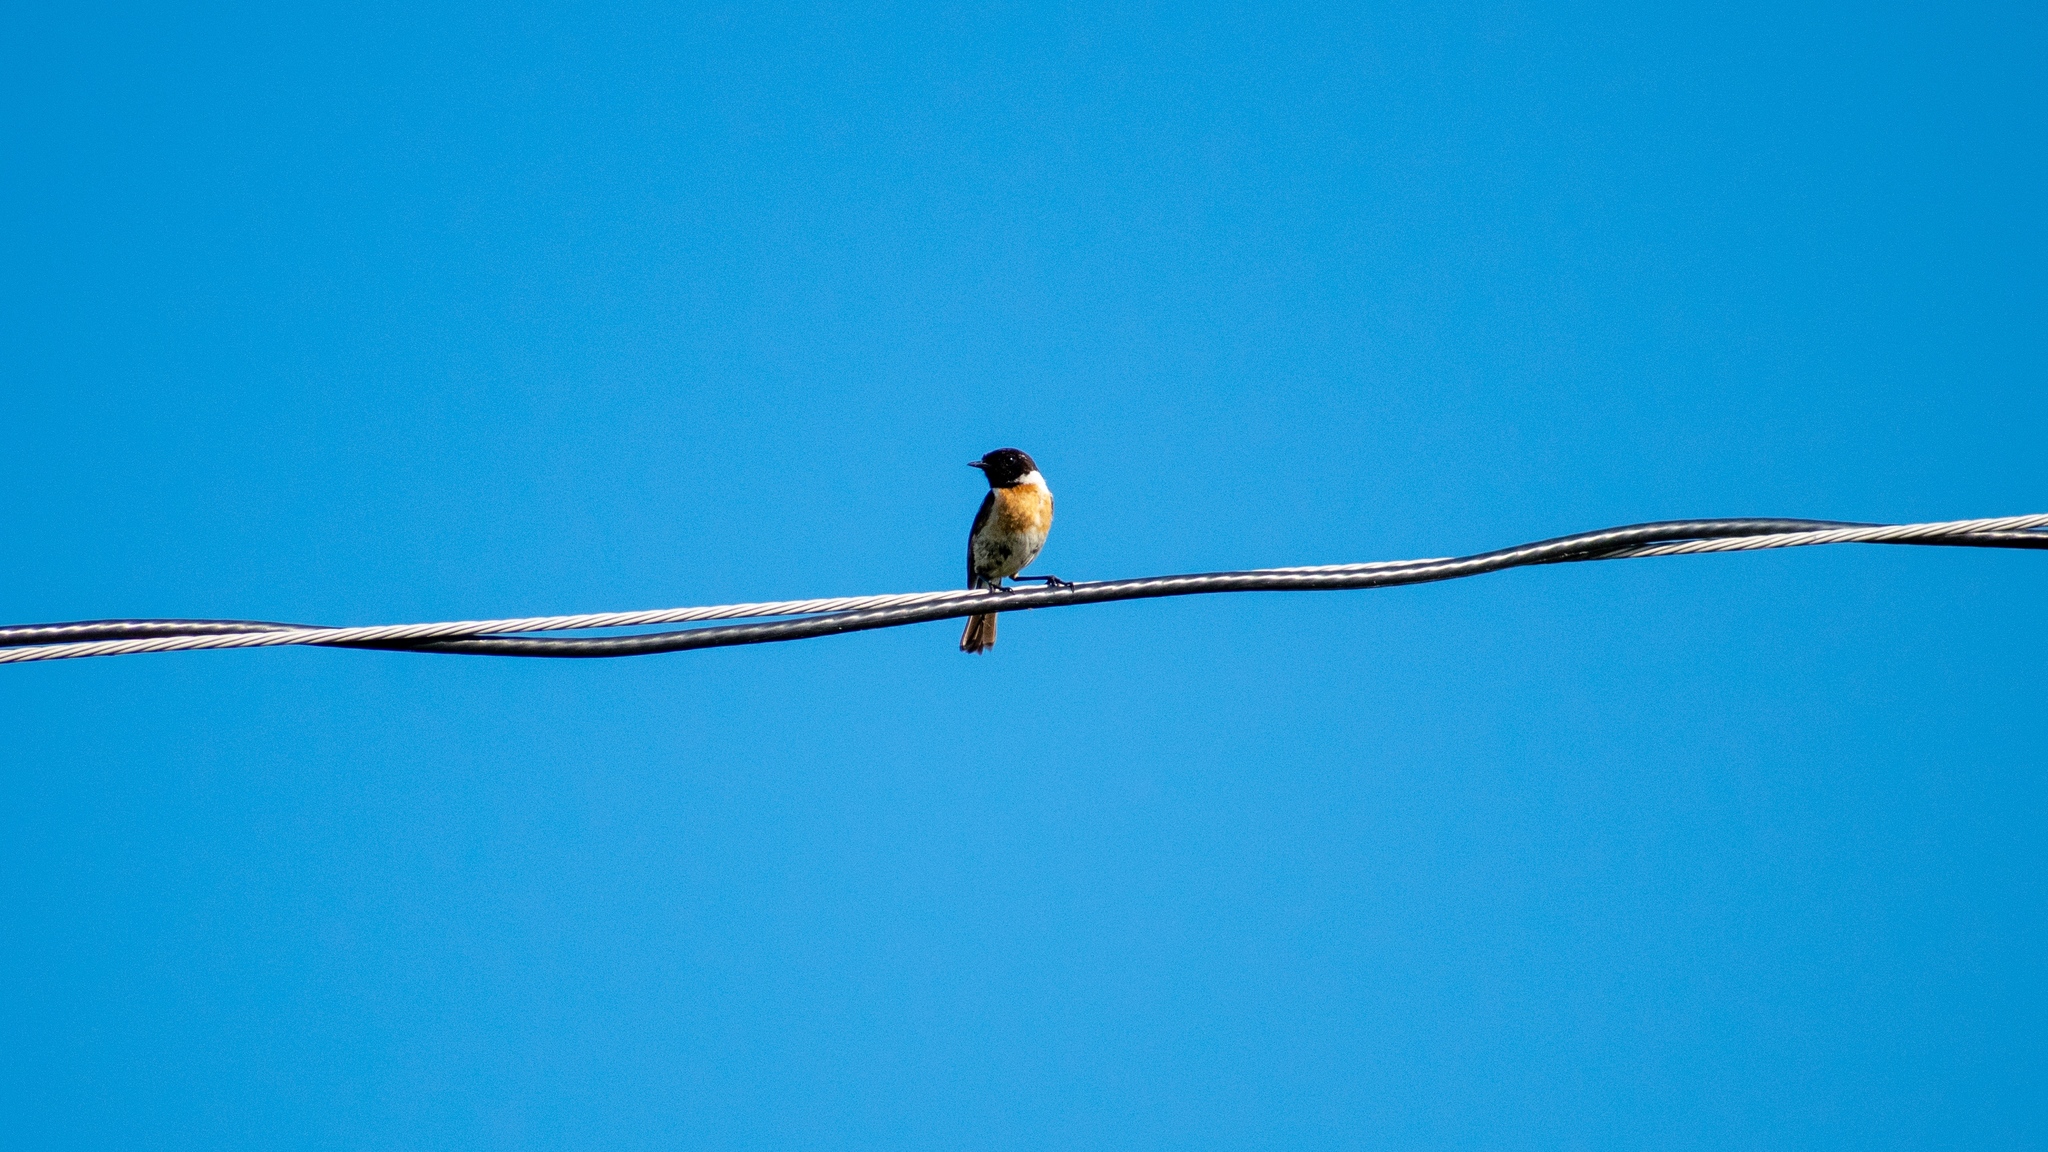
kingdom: Animalia
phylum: Chordata
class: Aves
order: Passeriformes
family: Muscicapidae
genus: Saxicola
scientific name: Saxicola rubicola
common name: European stonechat
